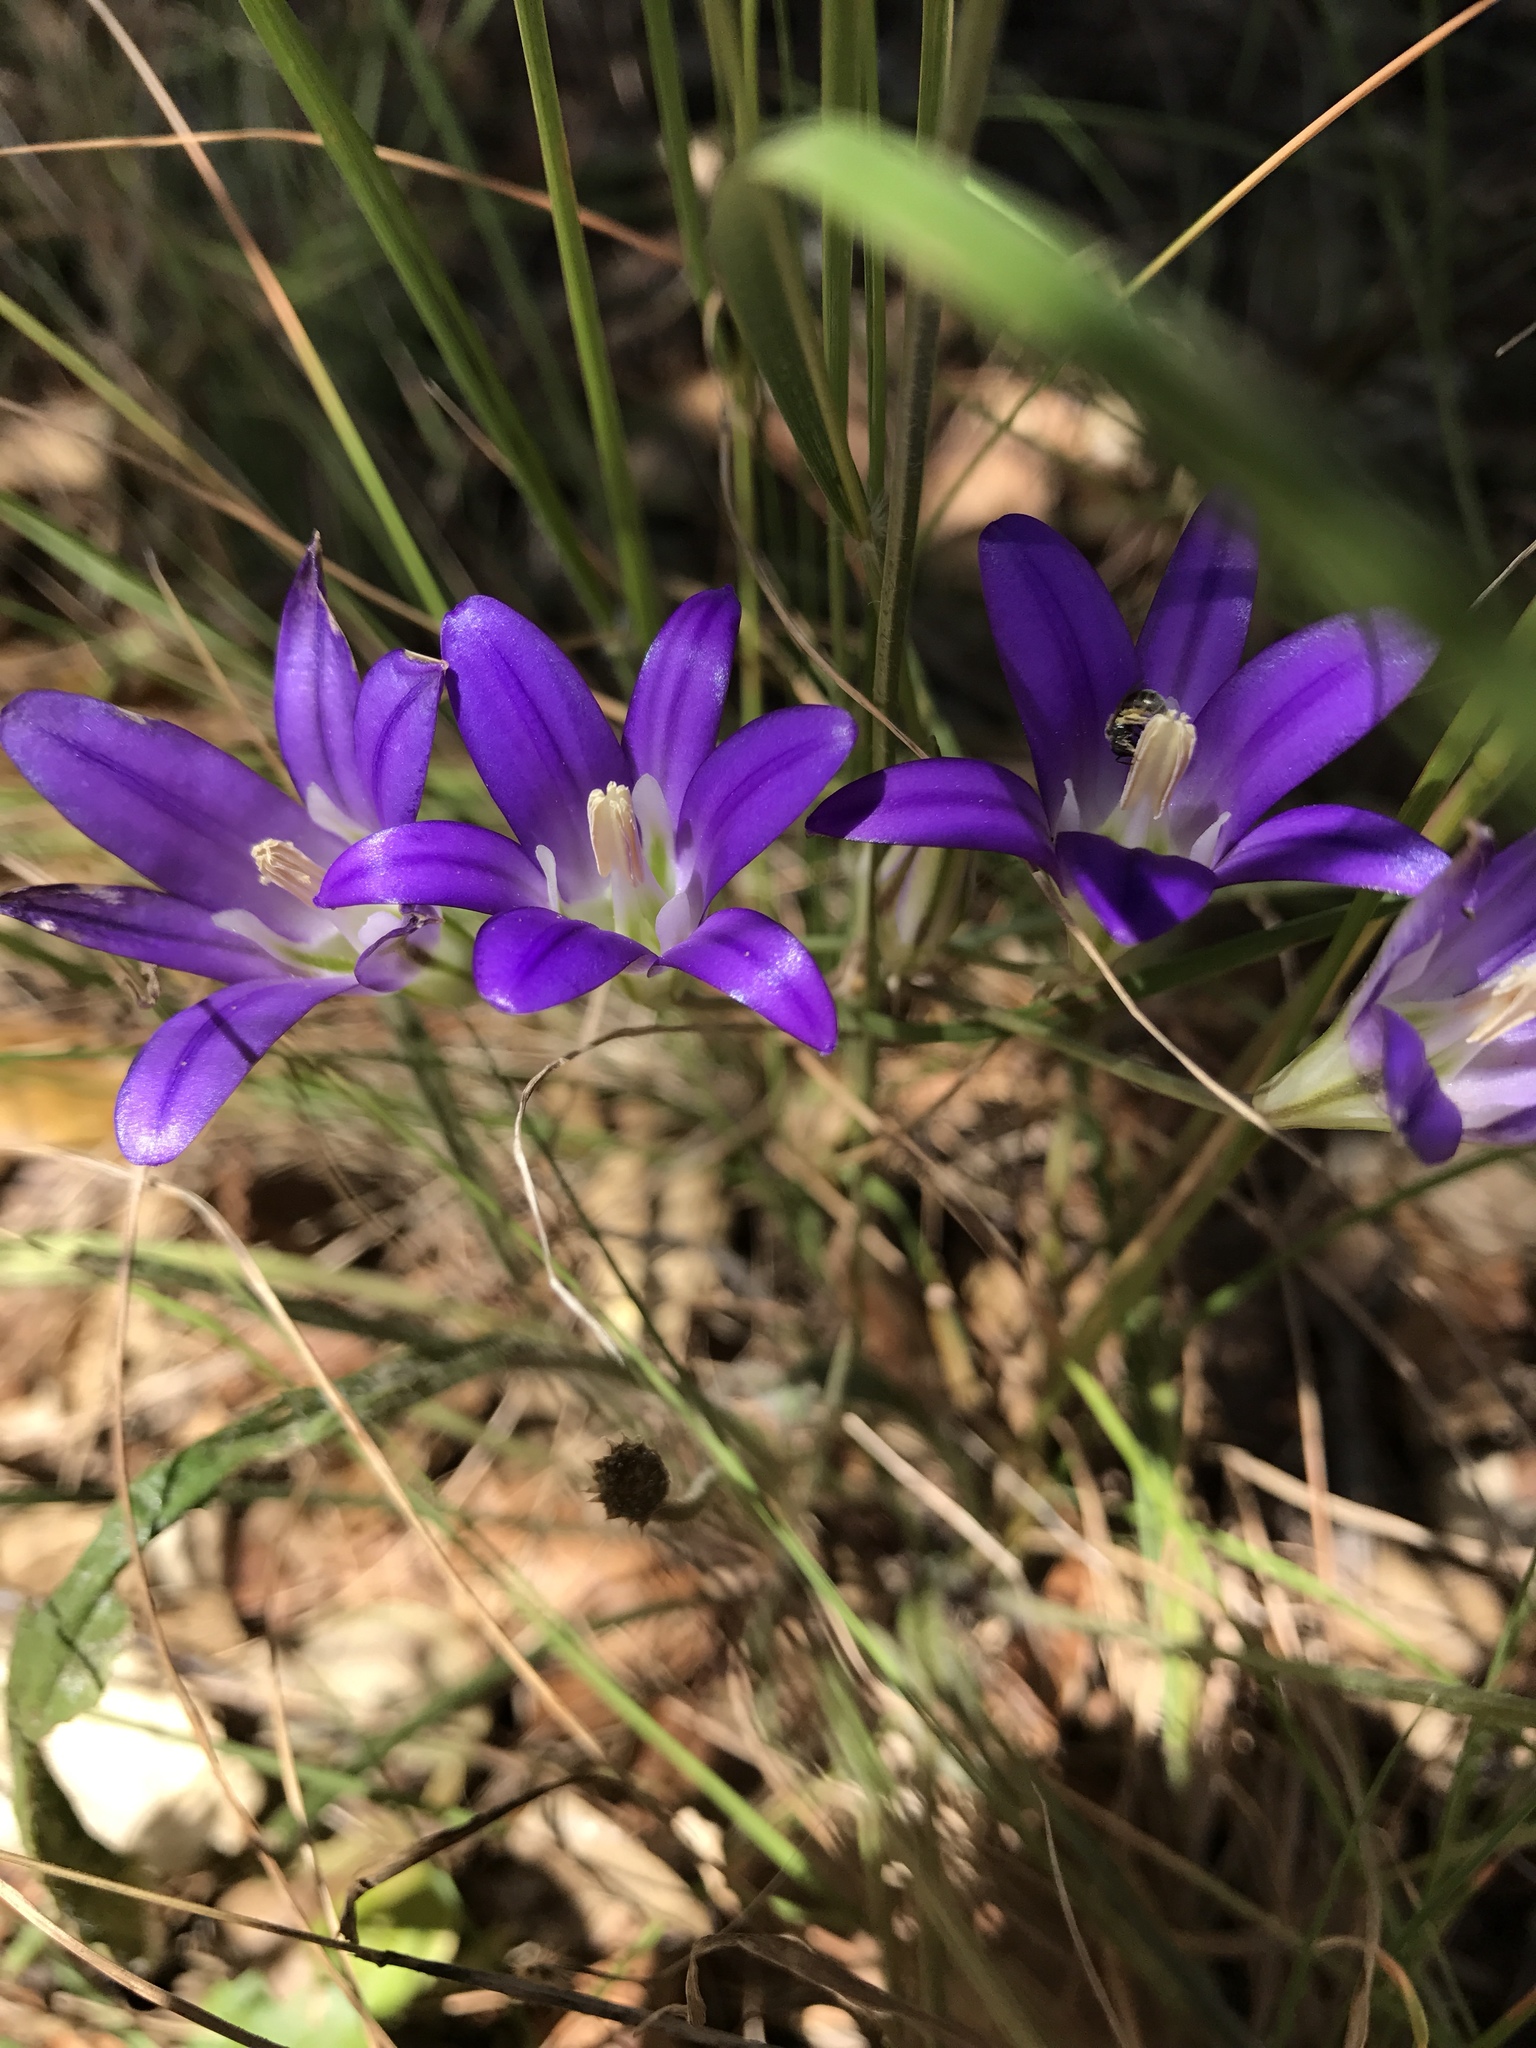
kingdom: Plantae
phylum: Tracheophyta
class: Liliopsida
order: Asparagales
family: Asparagaceae
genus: Brodiaea
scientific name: Brodiaea elegans
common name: Elegant cluster-lily
